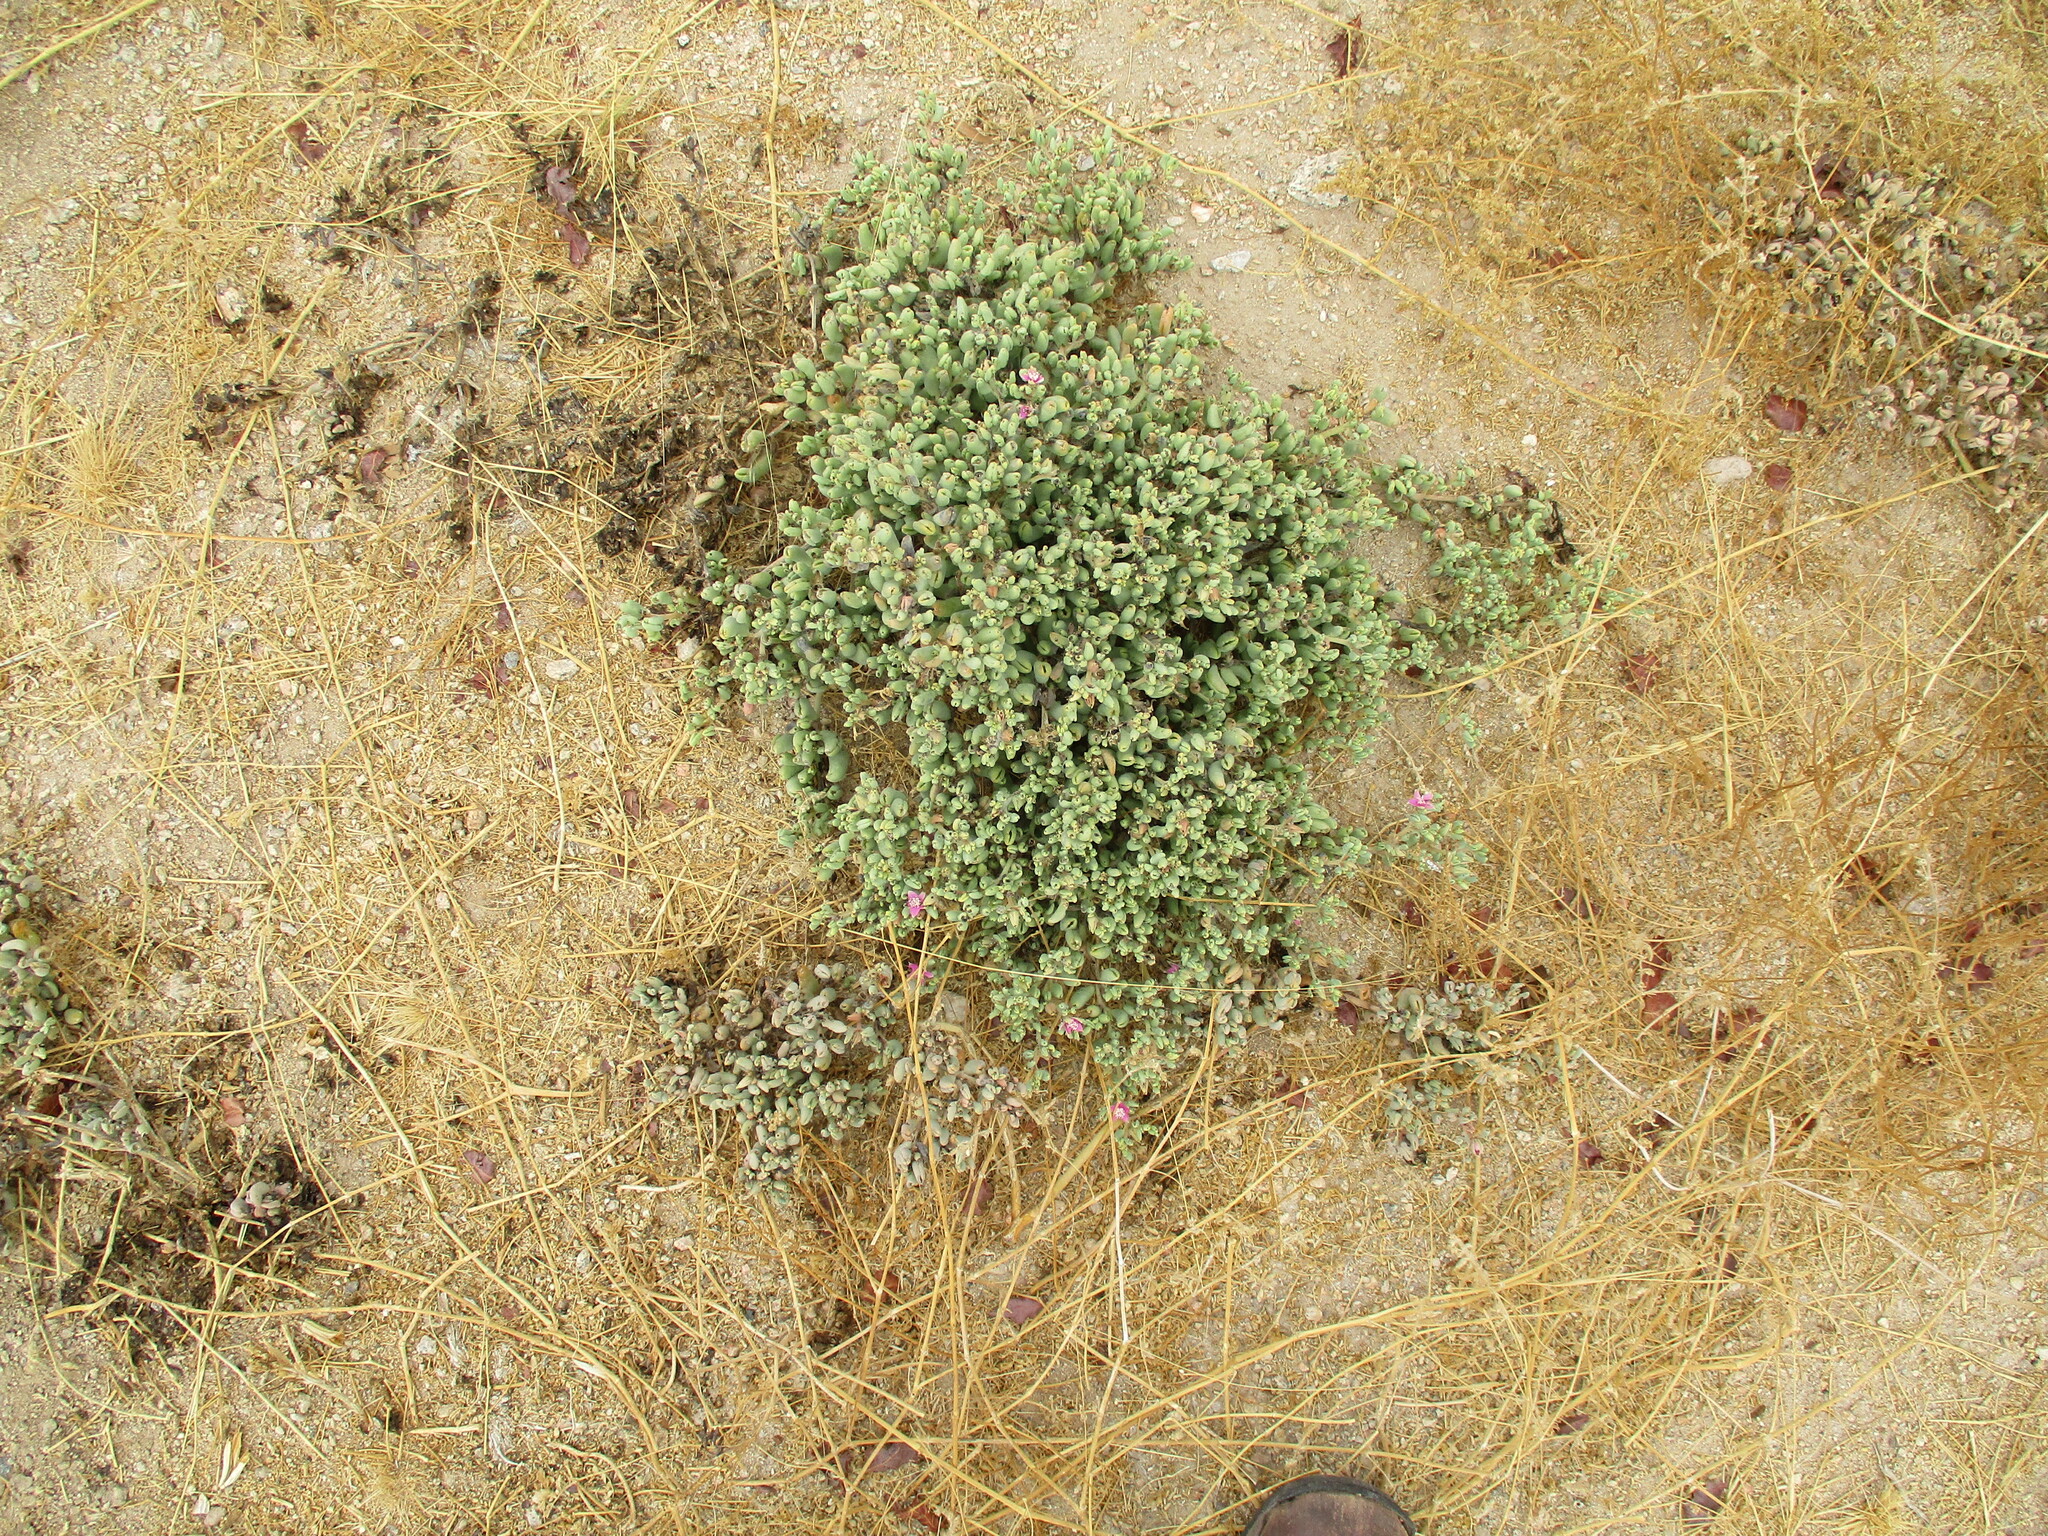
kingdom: Plantae
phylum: Tracheophyta
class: Magnoliopsida
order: Caryophyllales
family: Aizoaceae
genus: Sesuvium
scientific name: Sesuvium sesuvioides
